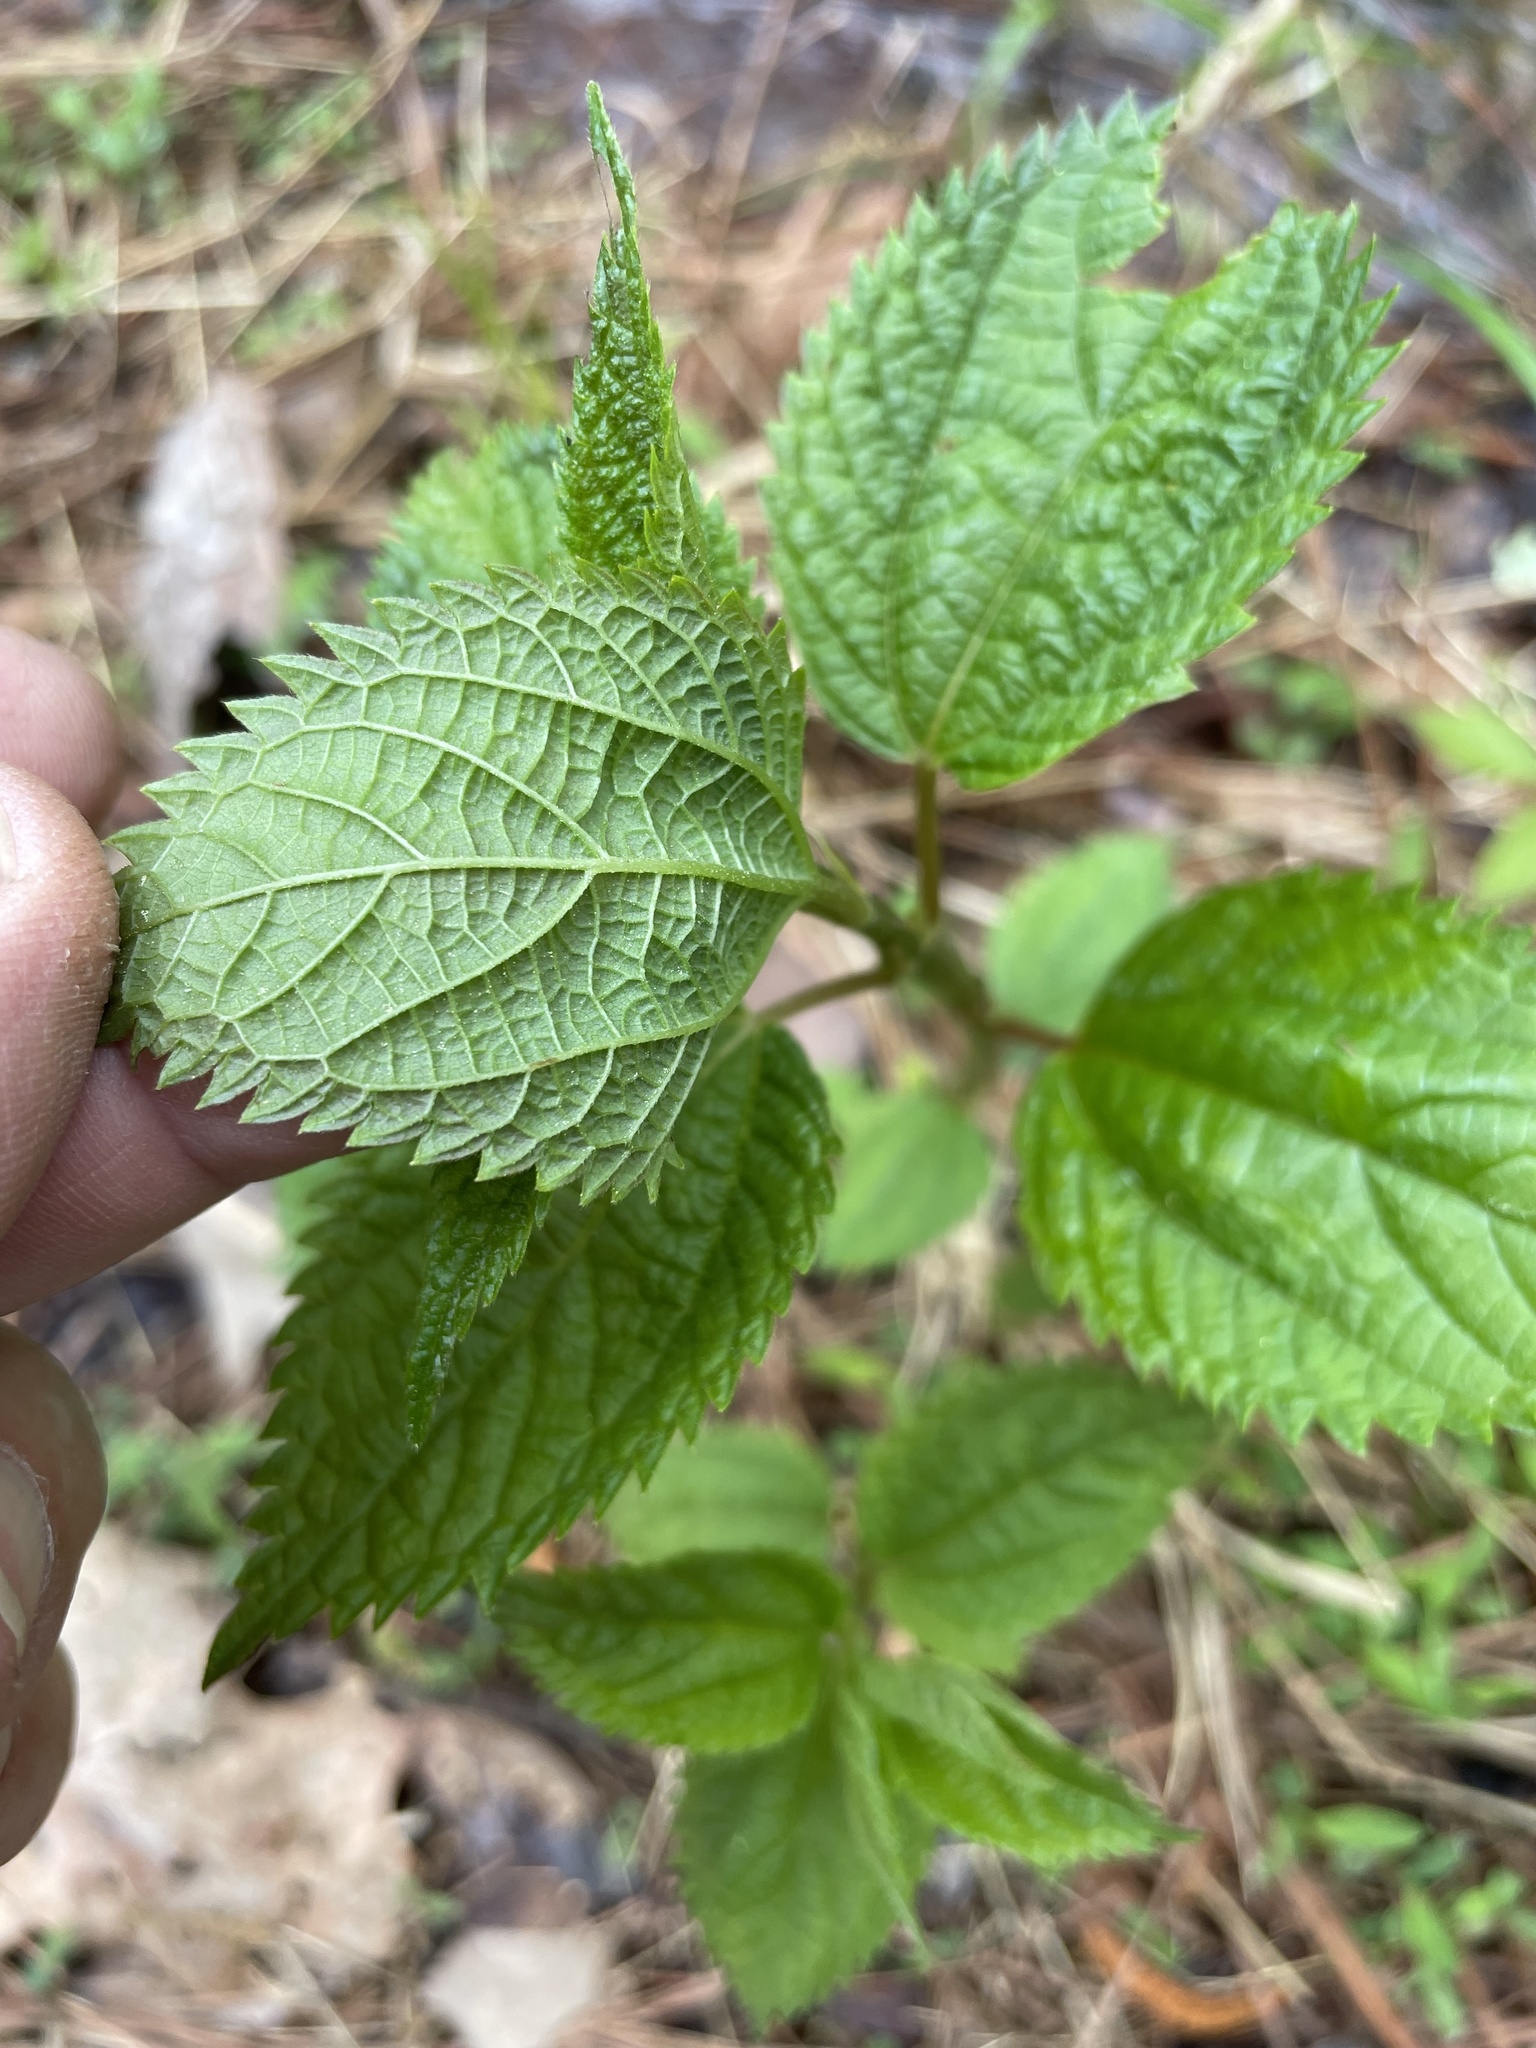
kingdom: Plantae
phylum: Tracheophyta
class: Magnoliopsida
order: Rosales
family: Urticaceae
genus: Boehmeria
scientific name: Boehmeria cylindrica
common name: Bog-hemp
